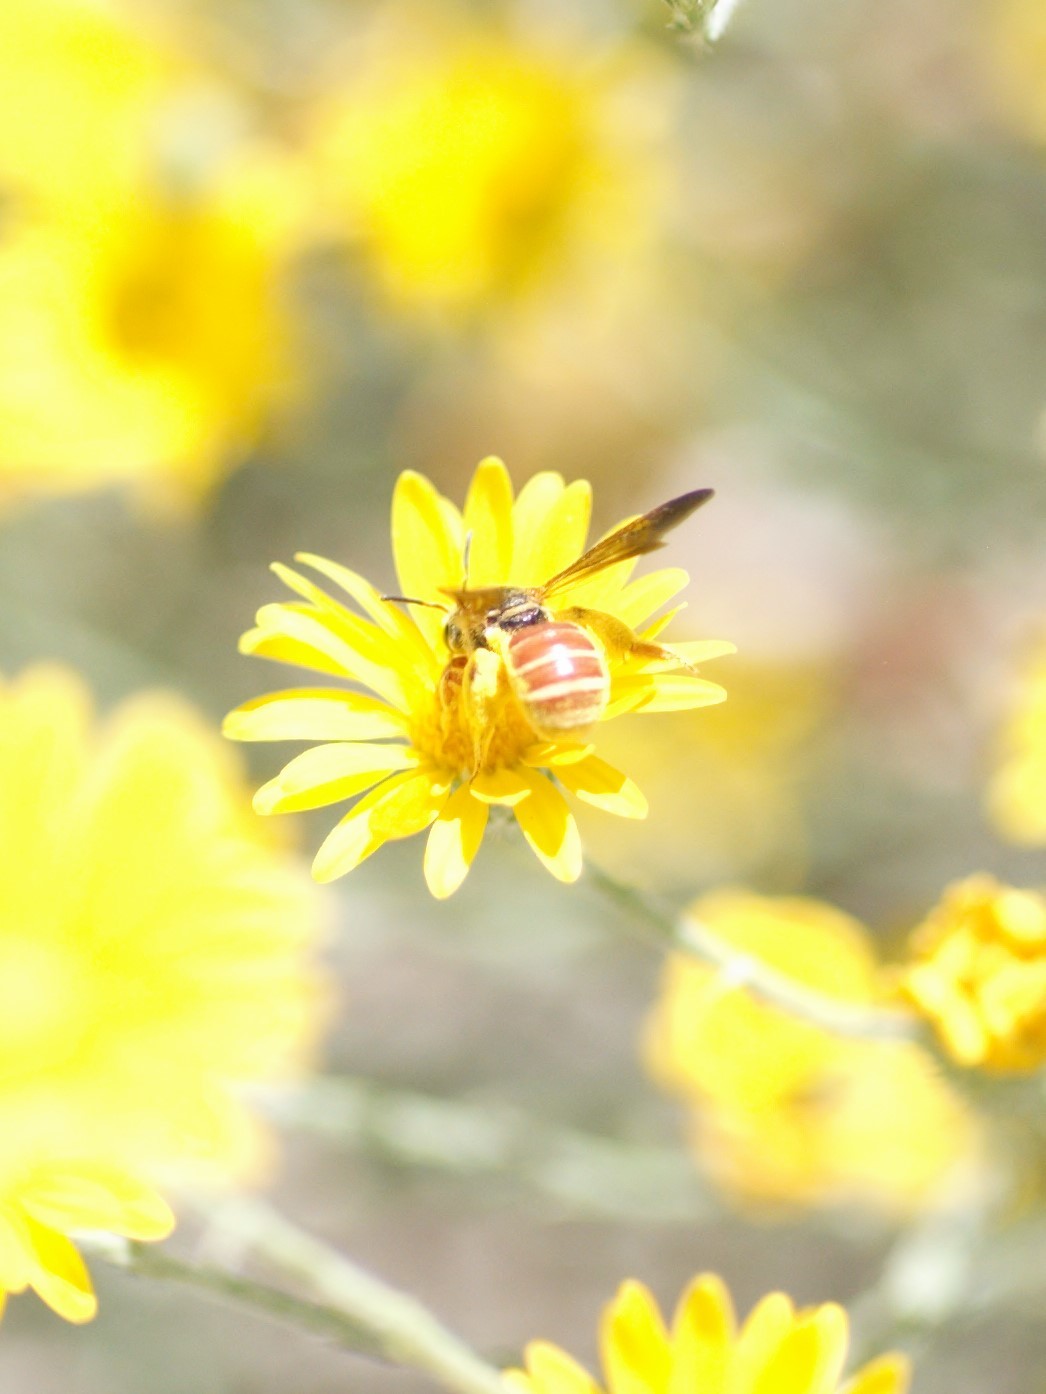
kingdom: Animalia
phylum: Arthropoda
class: Insecta
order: Hymenoptera
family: Halictidae
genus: Dieunomia
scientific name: Dieunomia nevadensis
